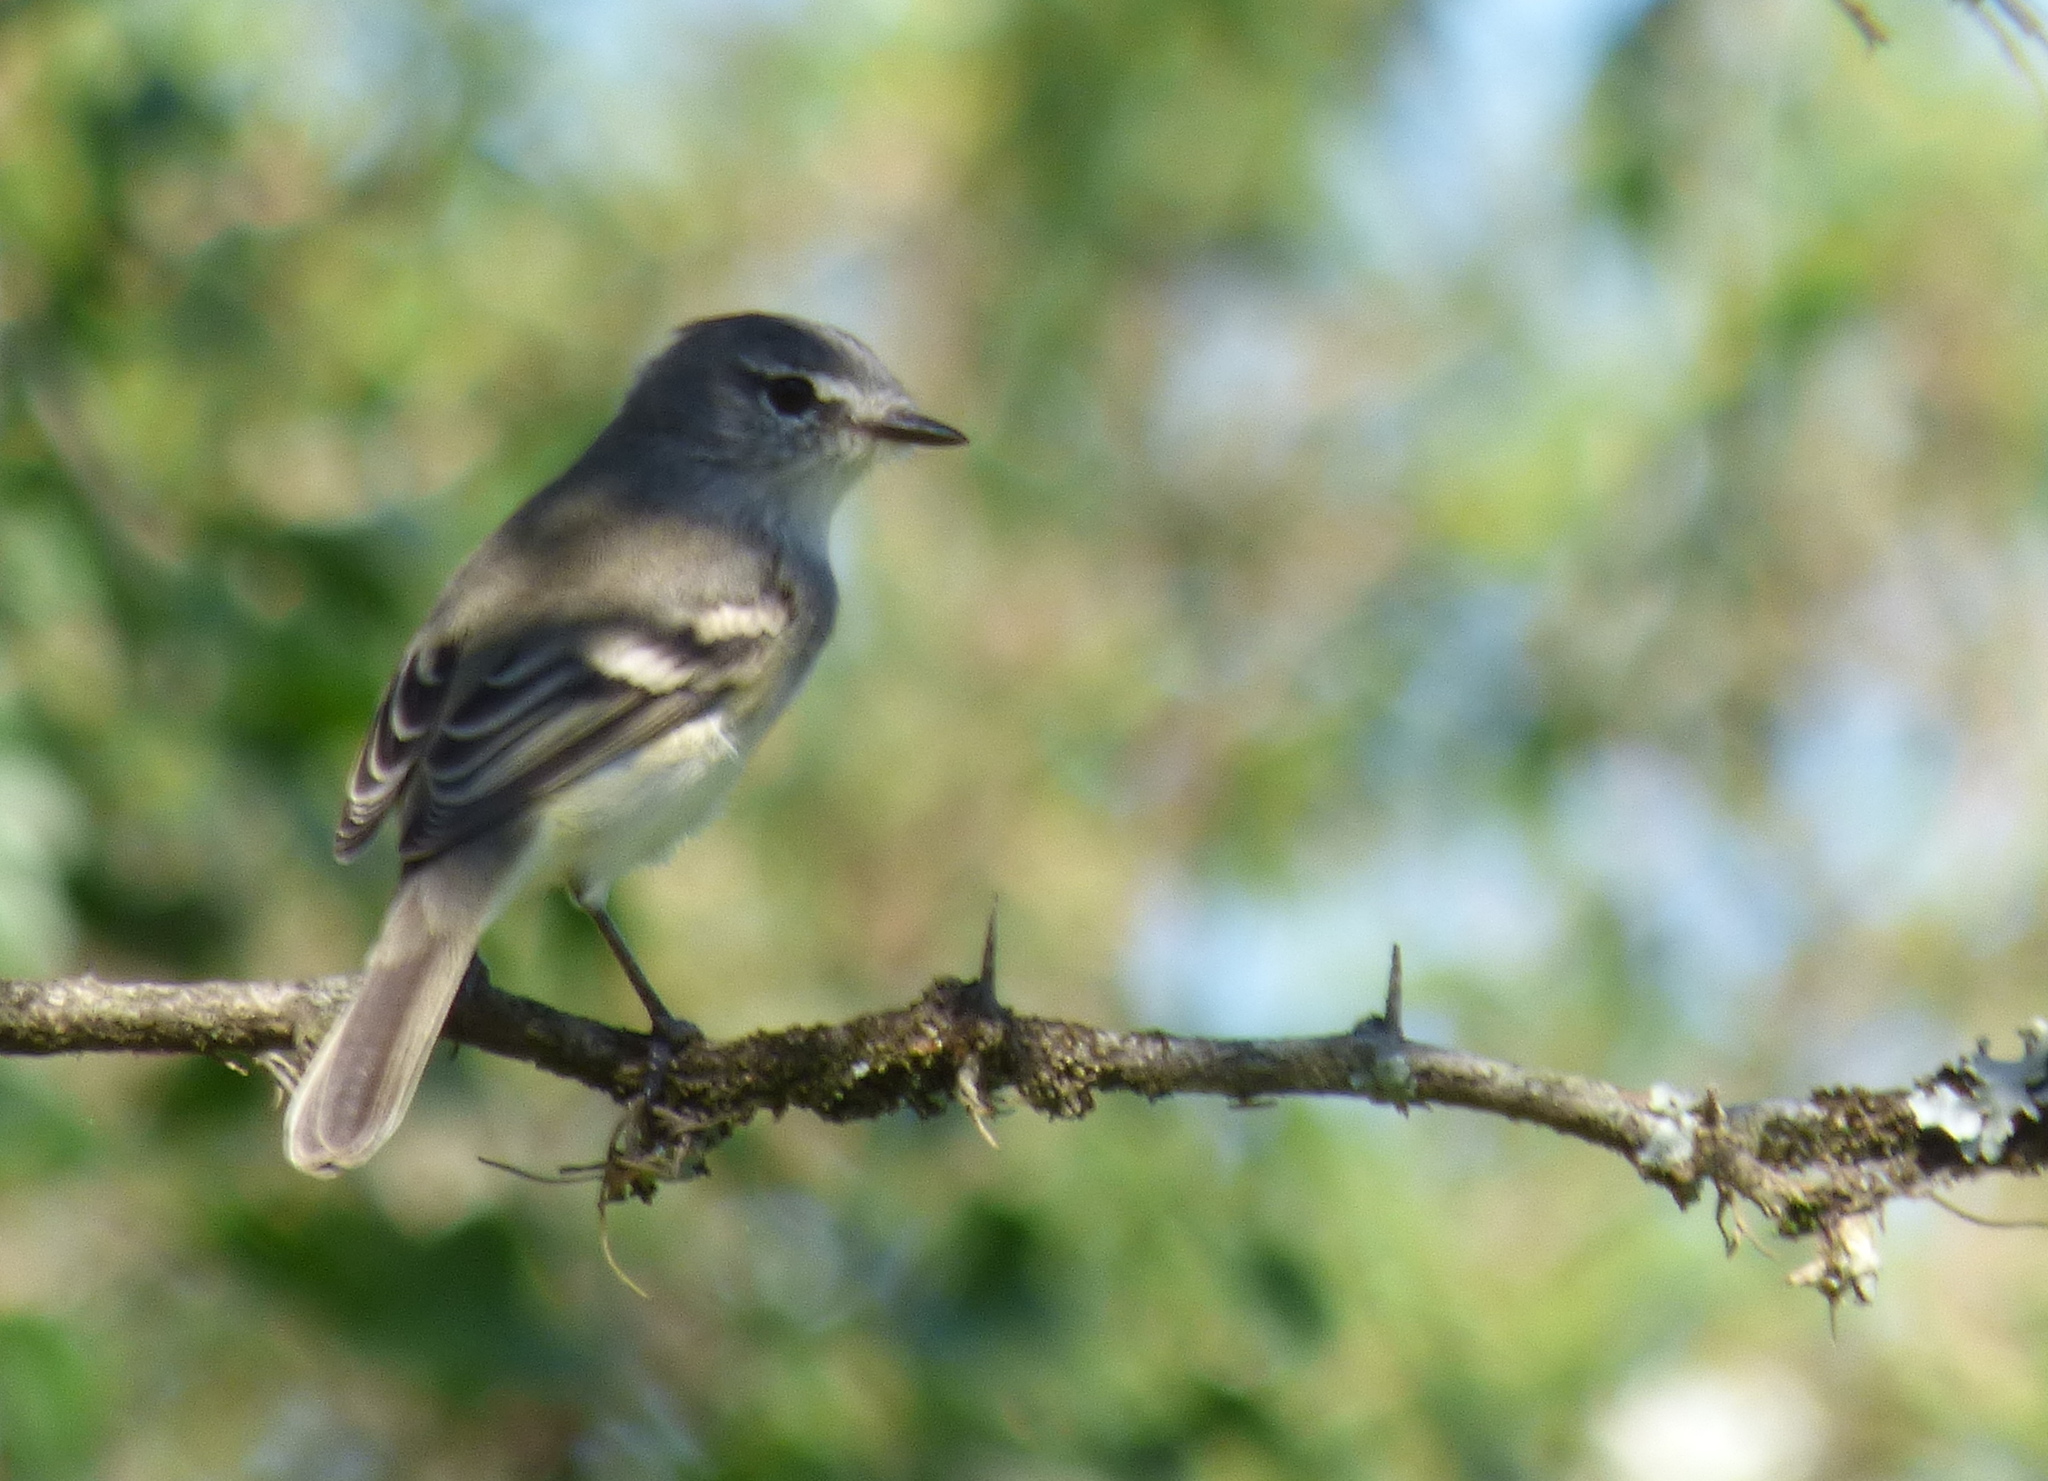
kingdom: Animalia
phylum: Chordata
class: Aves
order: Passeriformes
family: Tyrannidae
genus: Serpophaga
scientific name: Serpophaga subcristata
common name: White-crested tyrannulet
